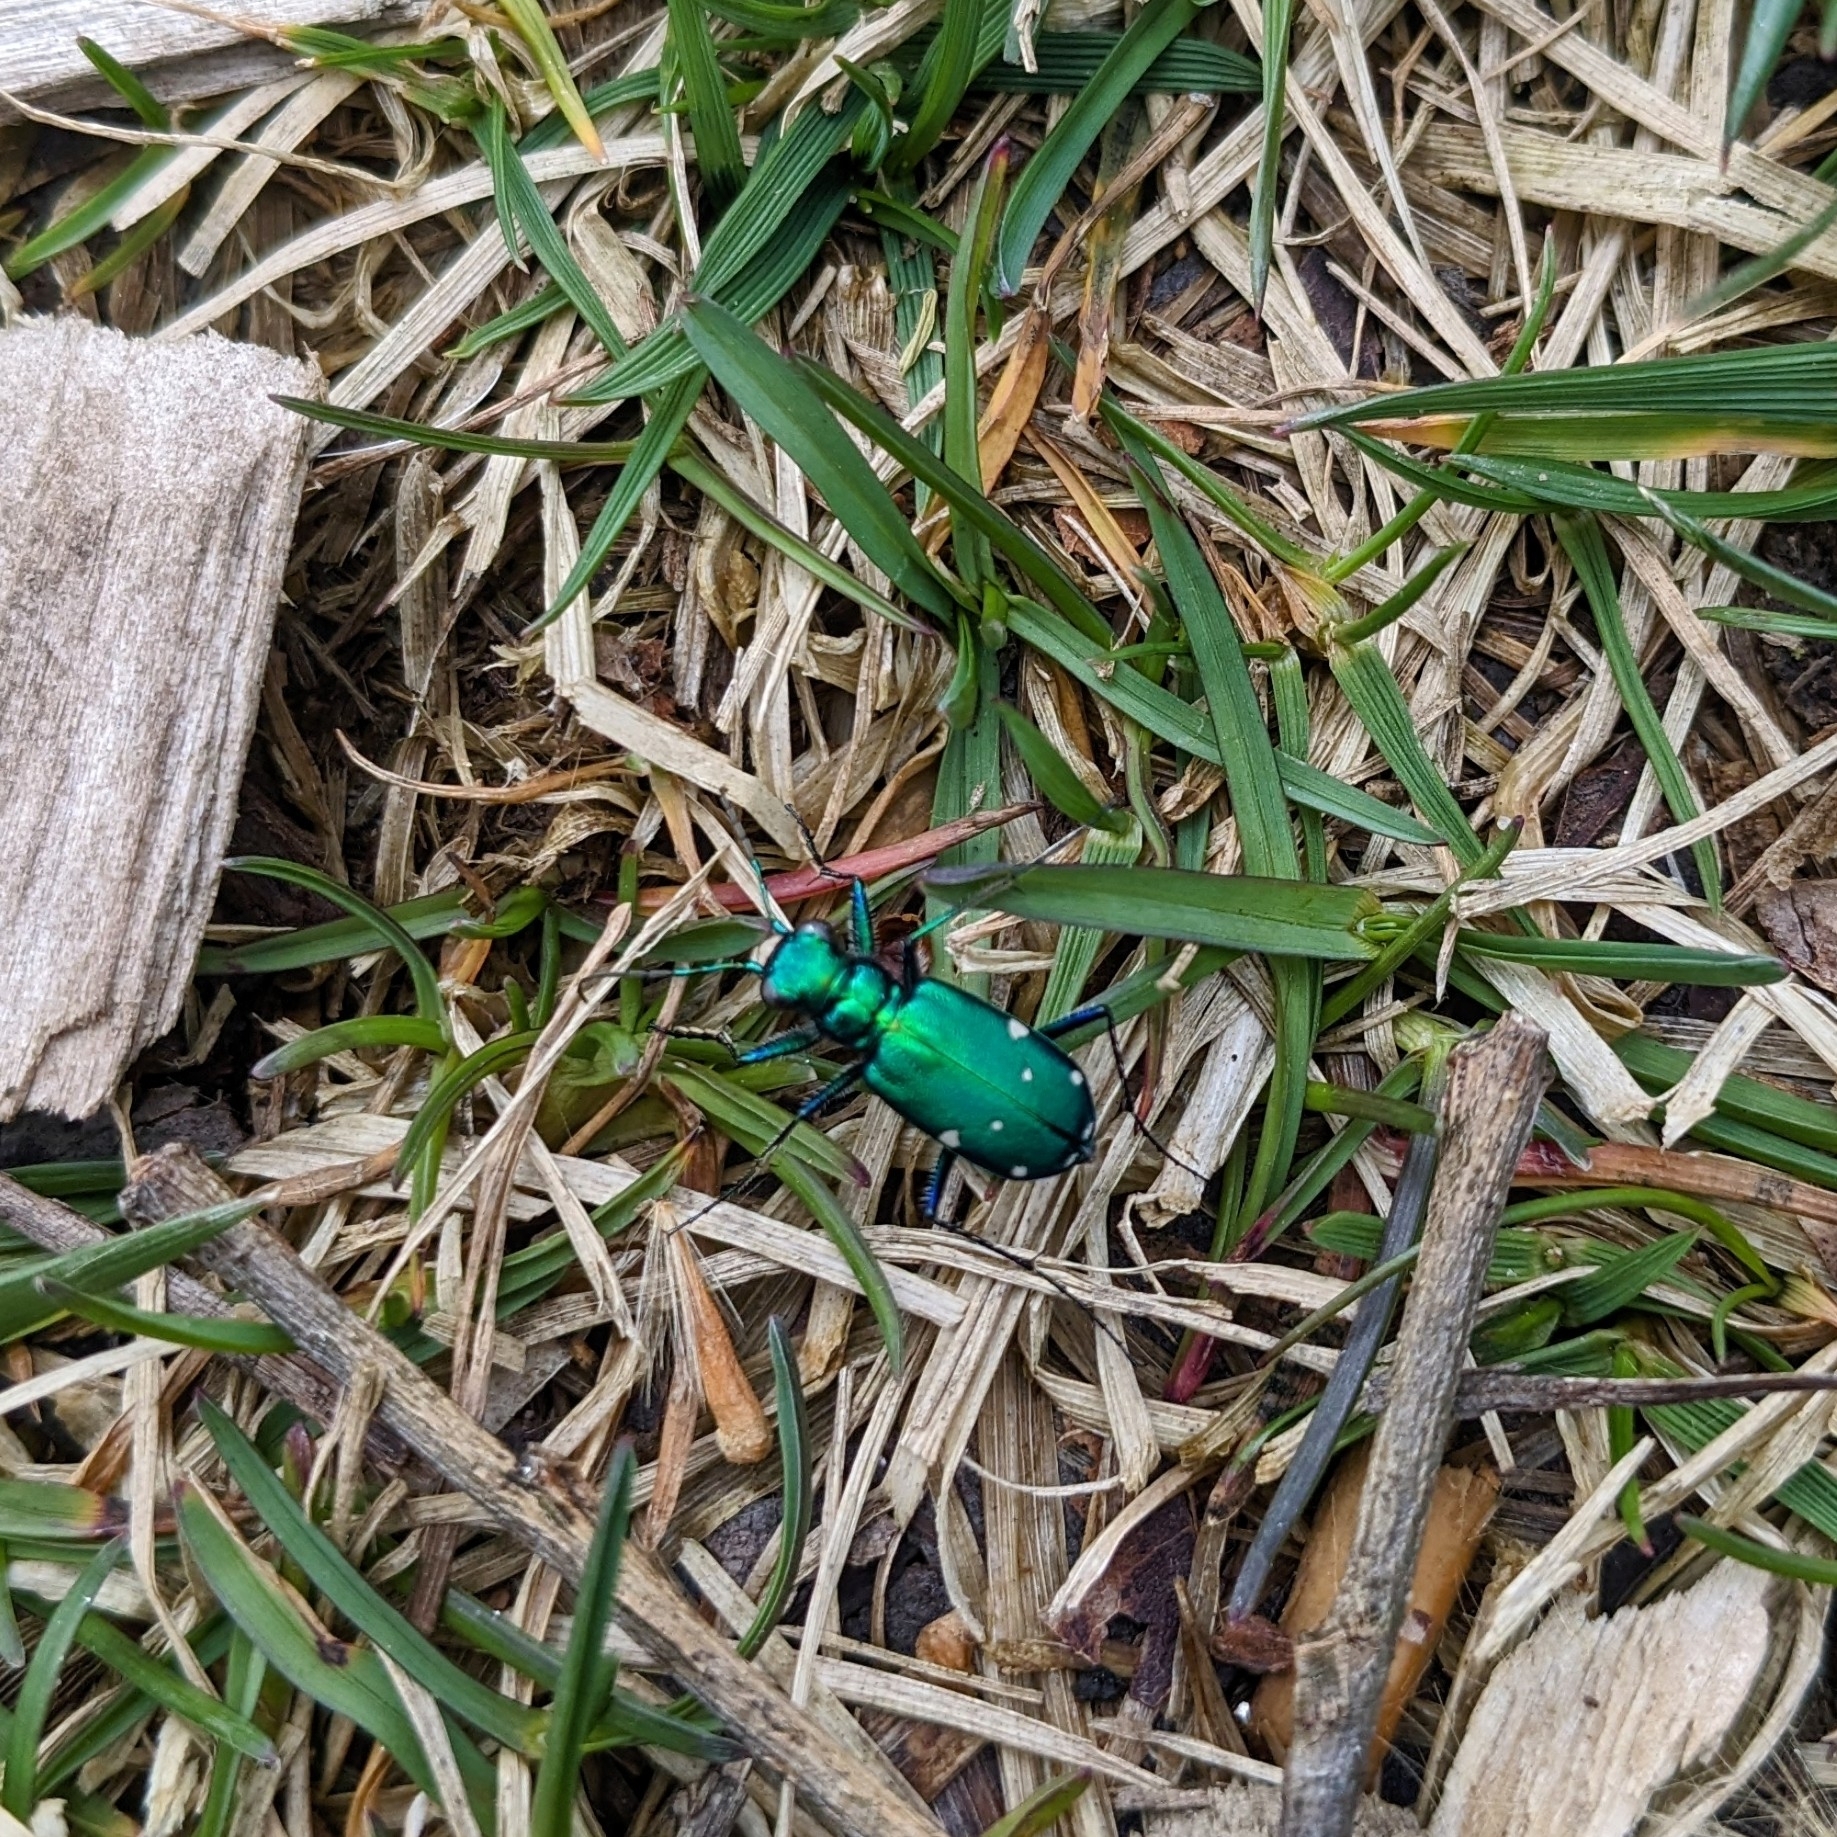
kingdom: Animalia
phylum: Arthropoda
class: Insecta
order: Coleoptera
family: Carabidae
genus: Cicindela
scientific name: Cicindela sexguttata
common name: Six-spotted tiger beetle
